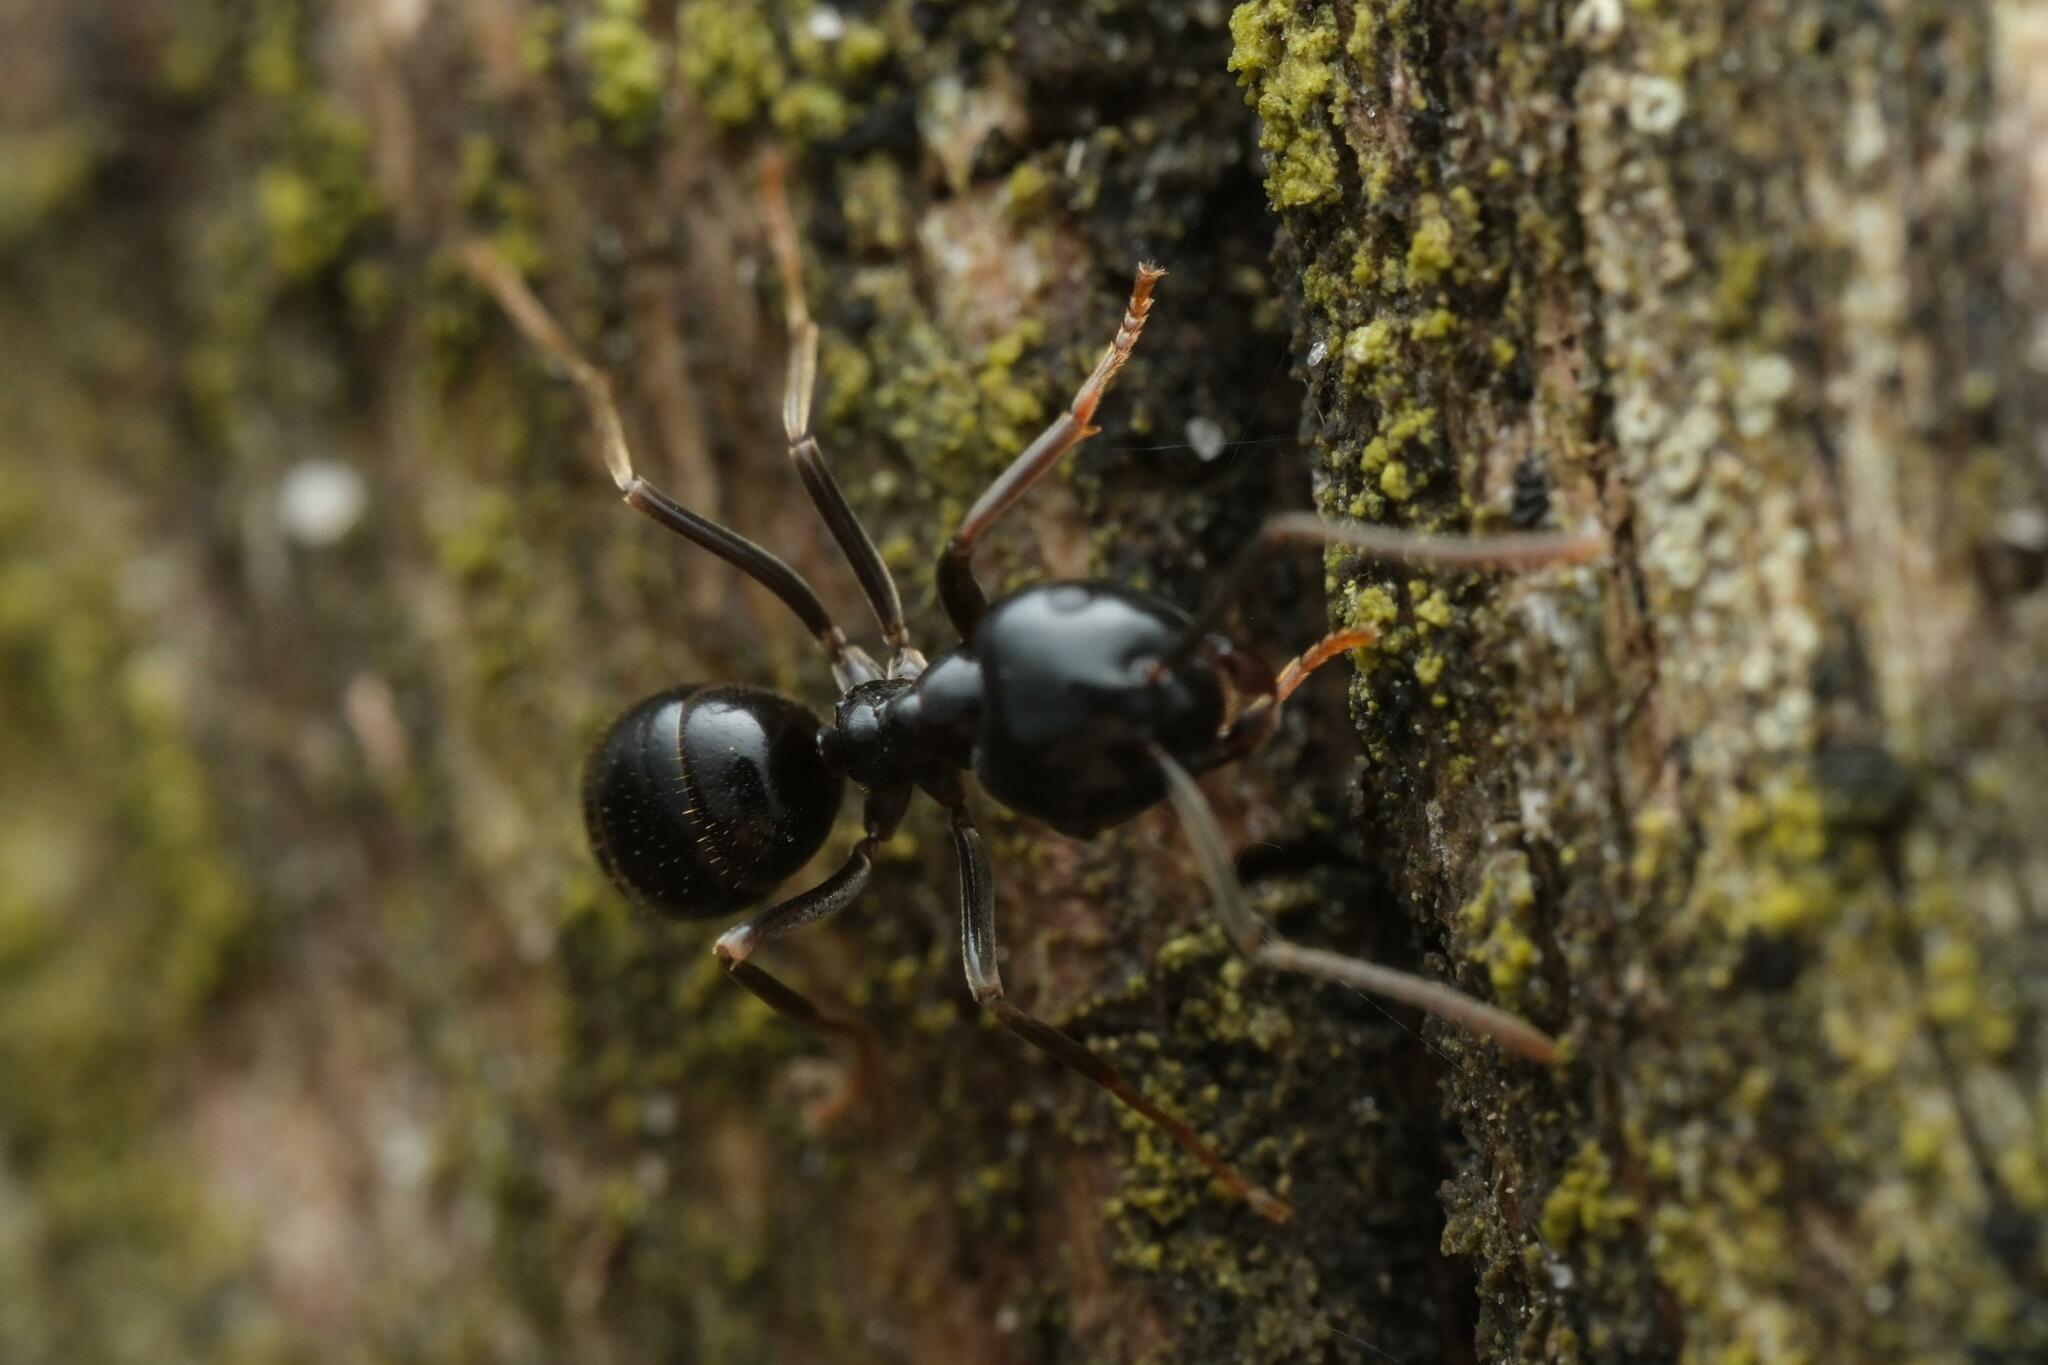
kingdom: Animalia
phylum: Arthropoda
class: Insecta
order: Hymenoptera
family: Formicidae
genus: Lasius
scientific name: Lasius fuliginosus
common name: Jet ant
